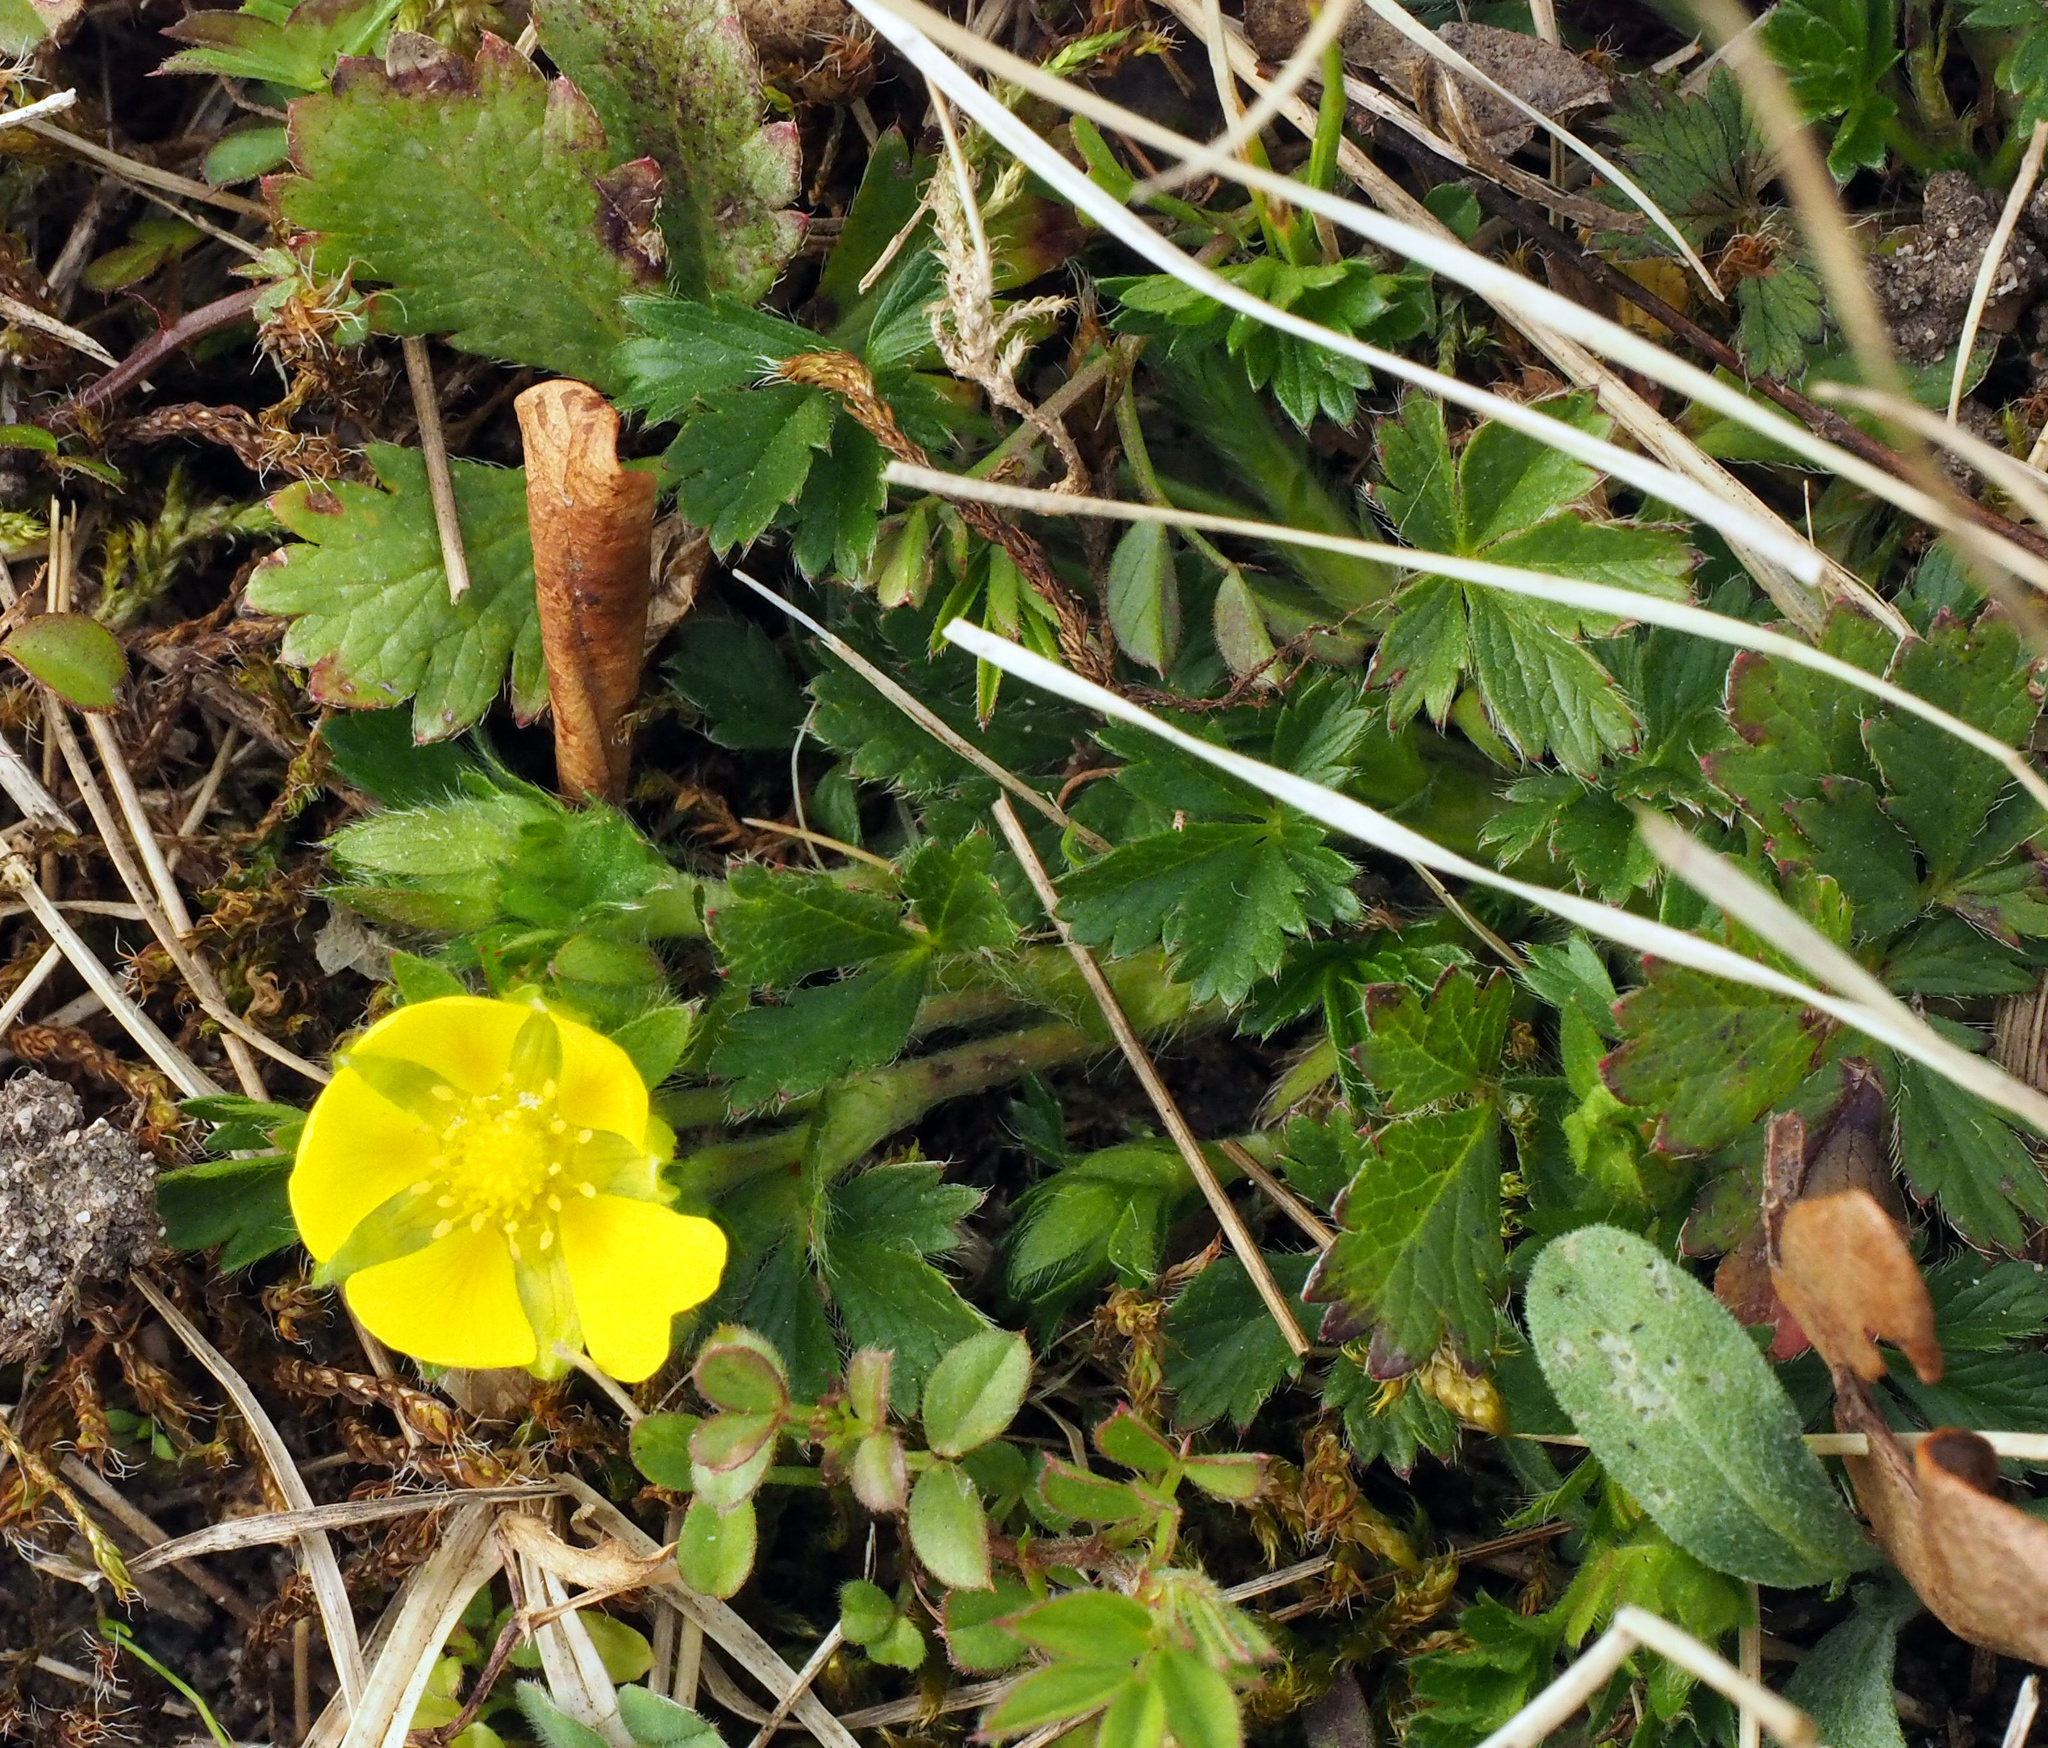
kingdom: Plantae
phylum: Tracheophyta
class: Magnoliopsida
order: Rosales
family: Rosaceae
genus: Potentilla
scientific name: Potentilla verna
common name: Spring cinquefoil
